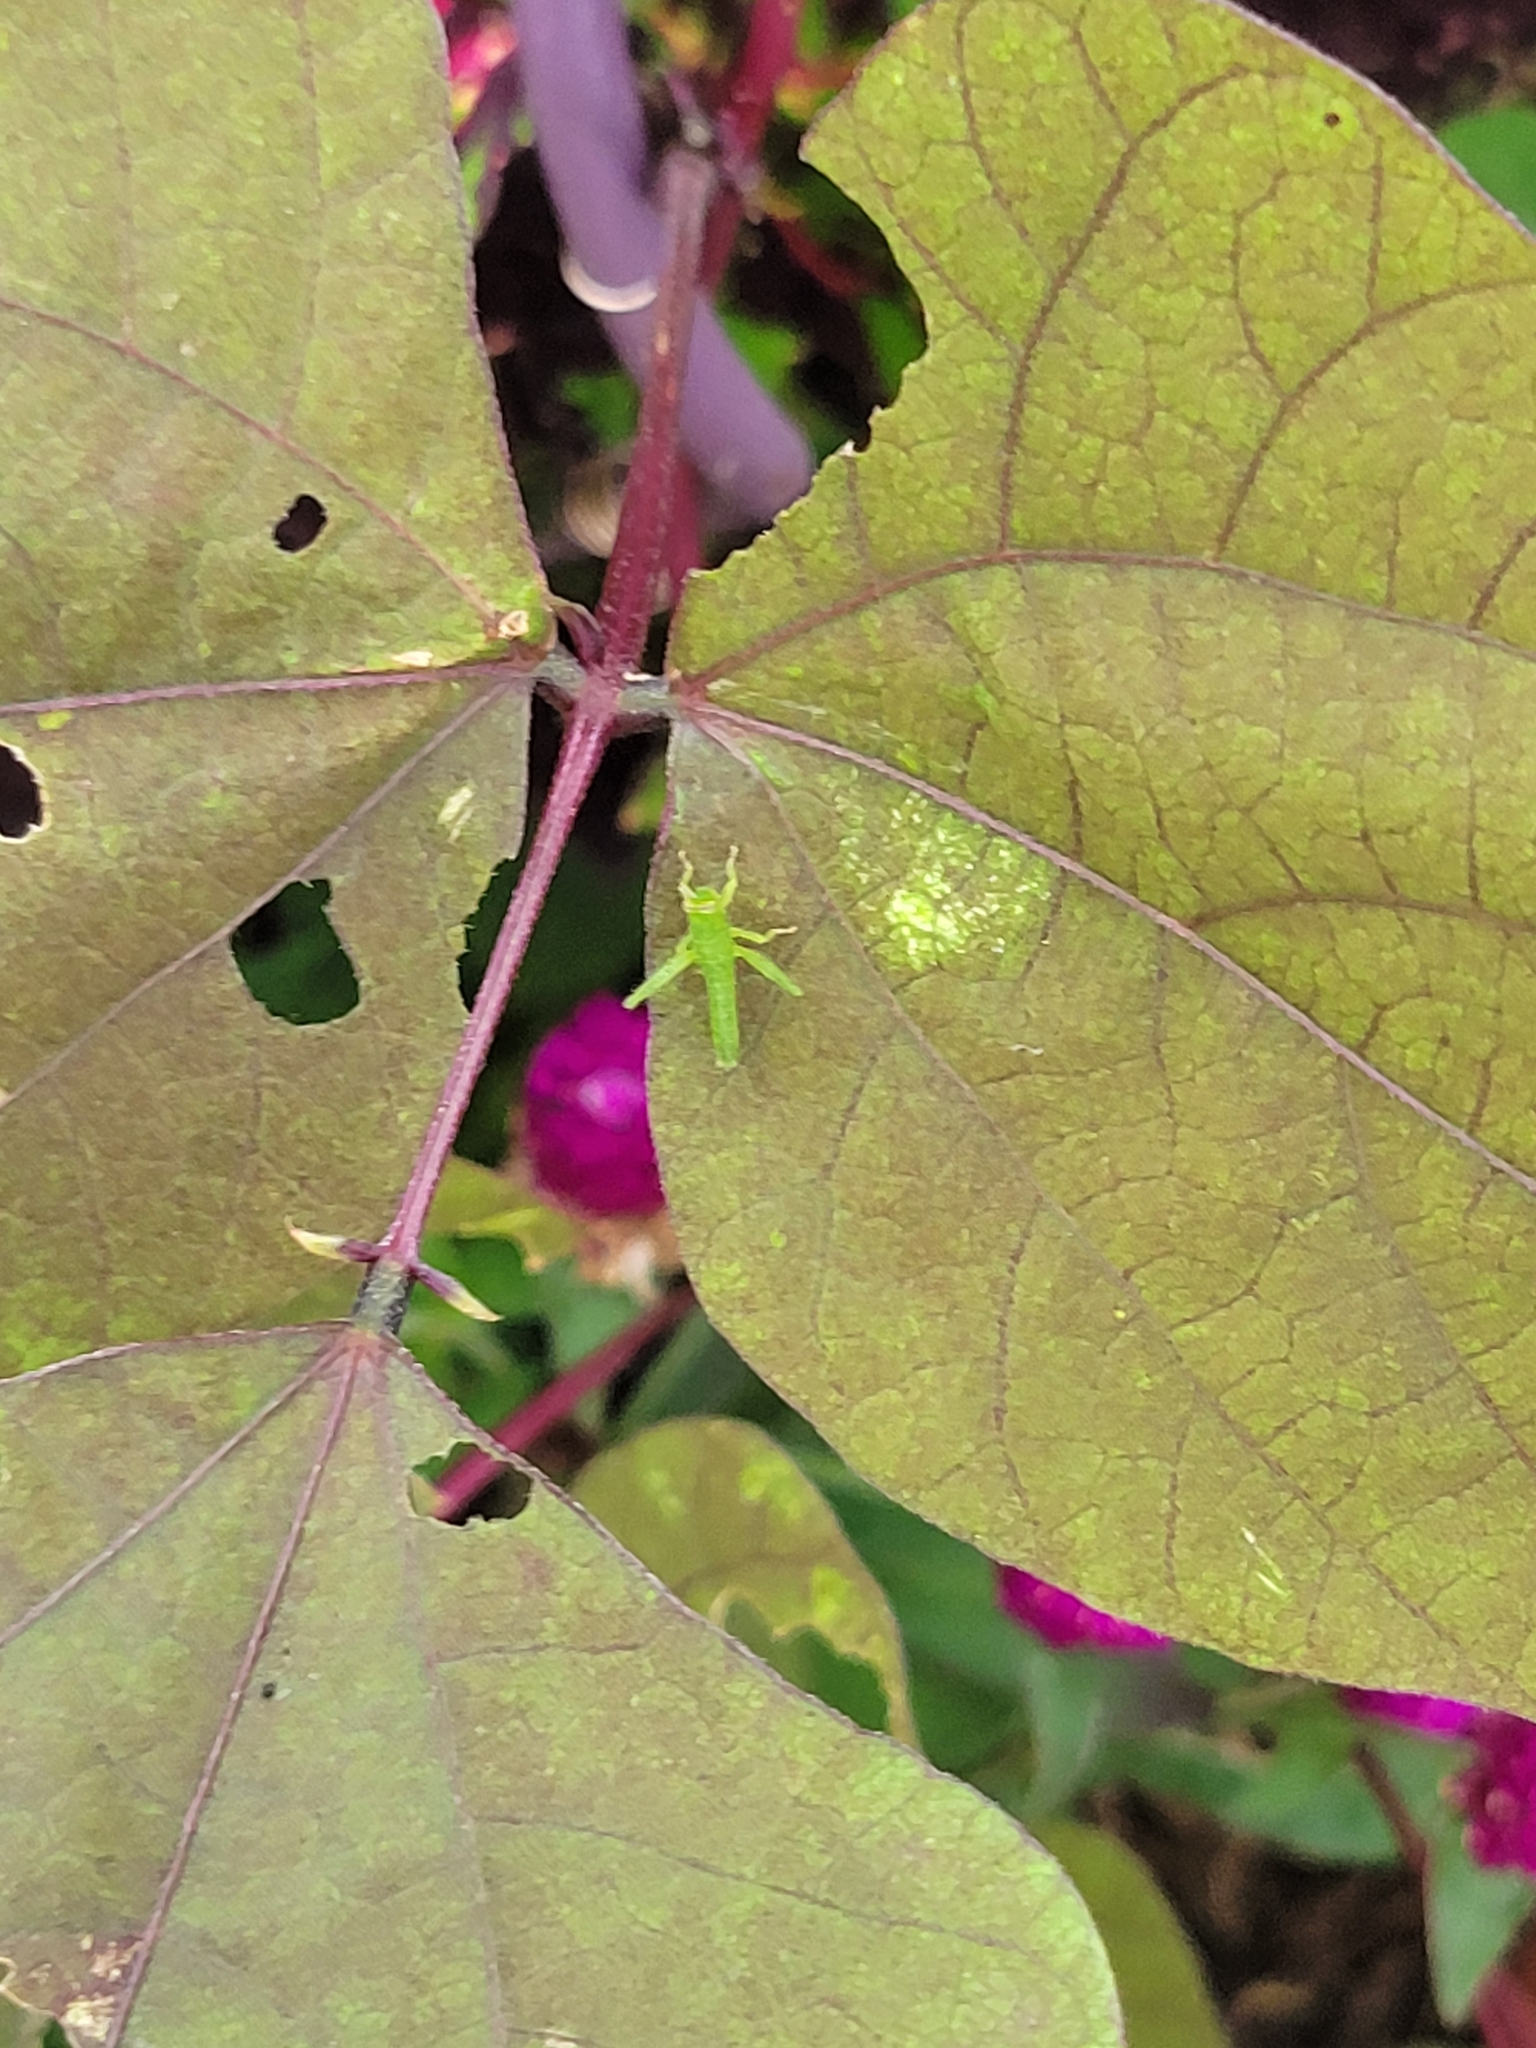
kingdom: Animalia
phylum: Arthropoda
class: Insecta
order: Orthoptera
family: Acrididae
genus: Schistocerca
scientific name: Schistocerca obscura
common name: Obscure bird grasshopper
